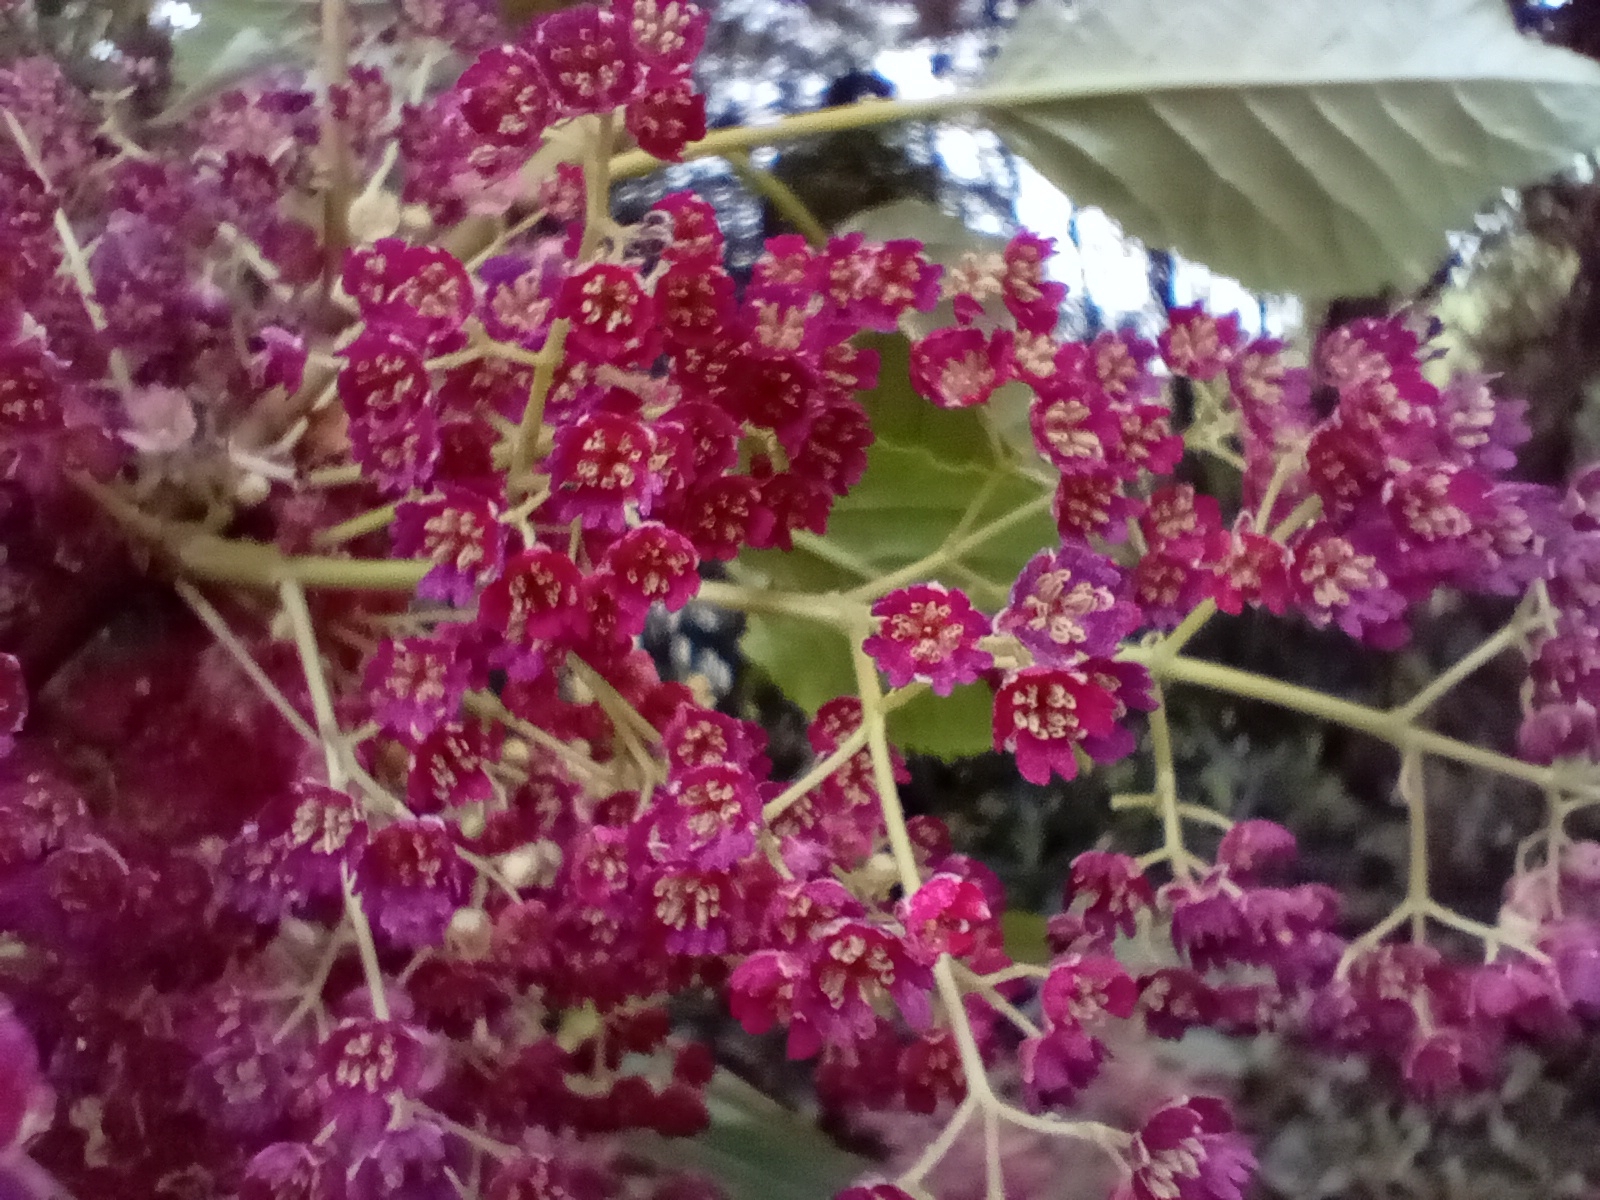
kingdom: Plantae
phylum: Tracheophyta
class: Magnoliopsida
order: Oxalidales
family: Elaeocarpaceae
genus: Aristotelia
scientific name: Aristotelia serrata
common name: New zealand wineberry
